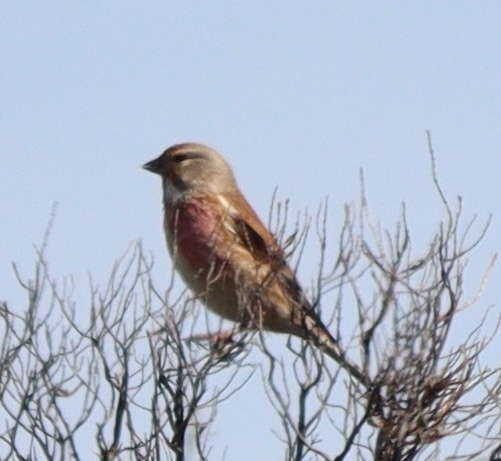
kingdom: Animalia
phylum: Chordata
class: Aves
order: Passeriformes
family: Fringillidae
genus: Linaria
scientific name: Linaria cannabina
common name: Common linnet
